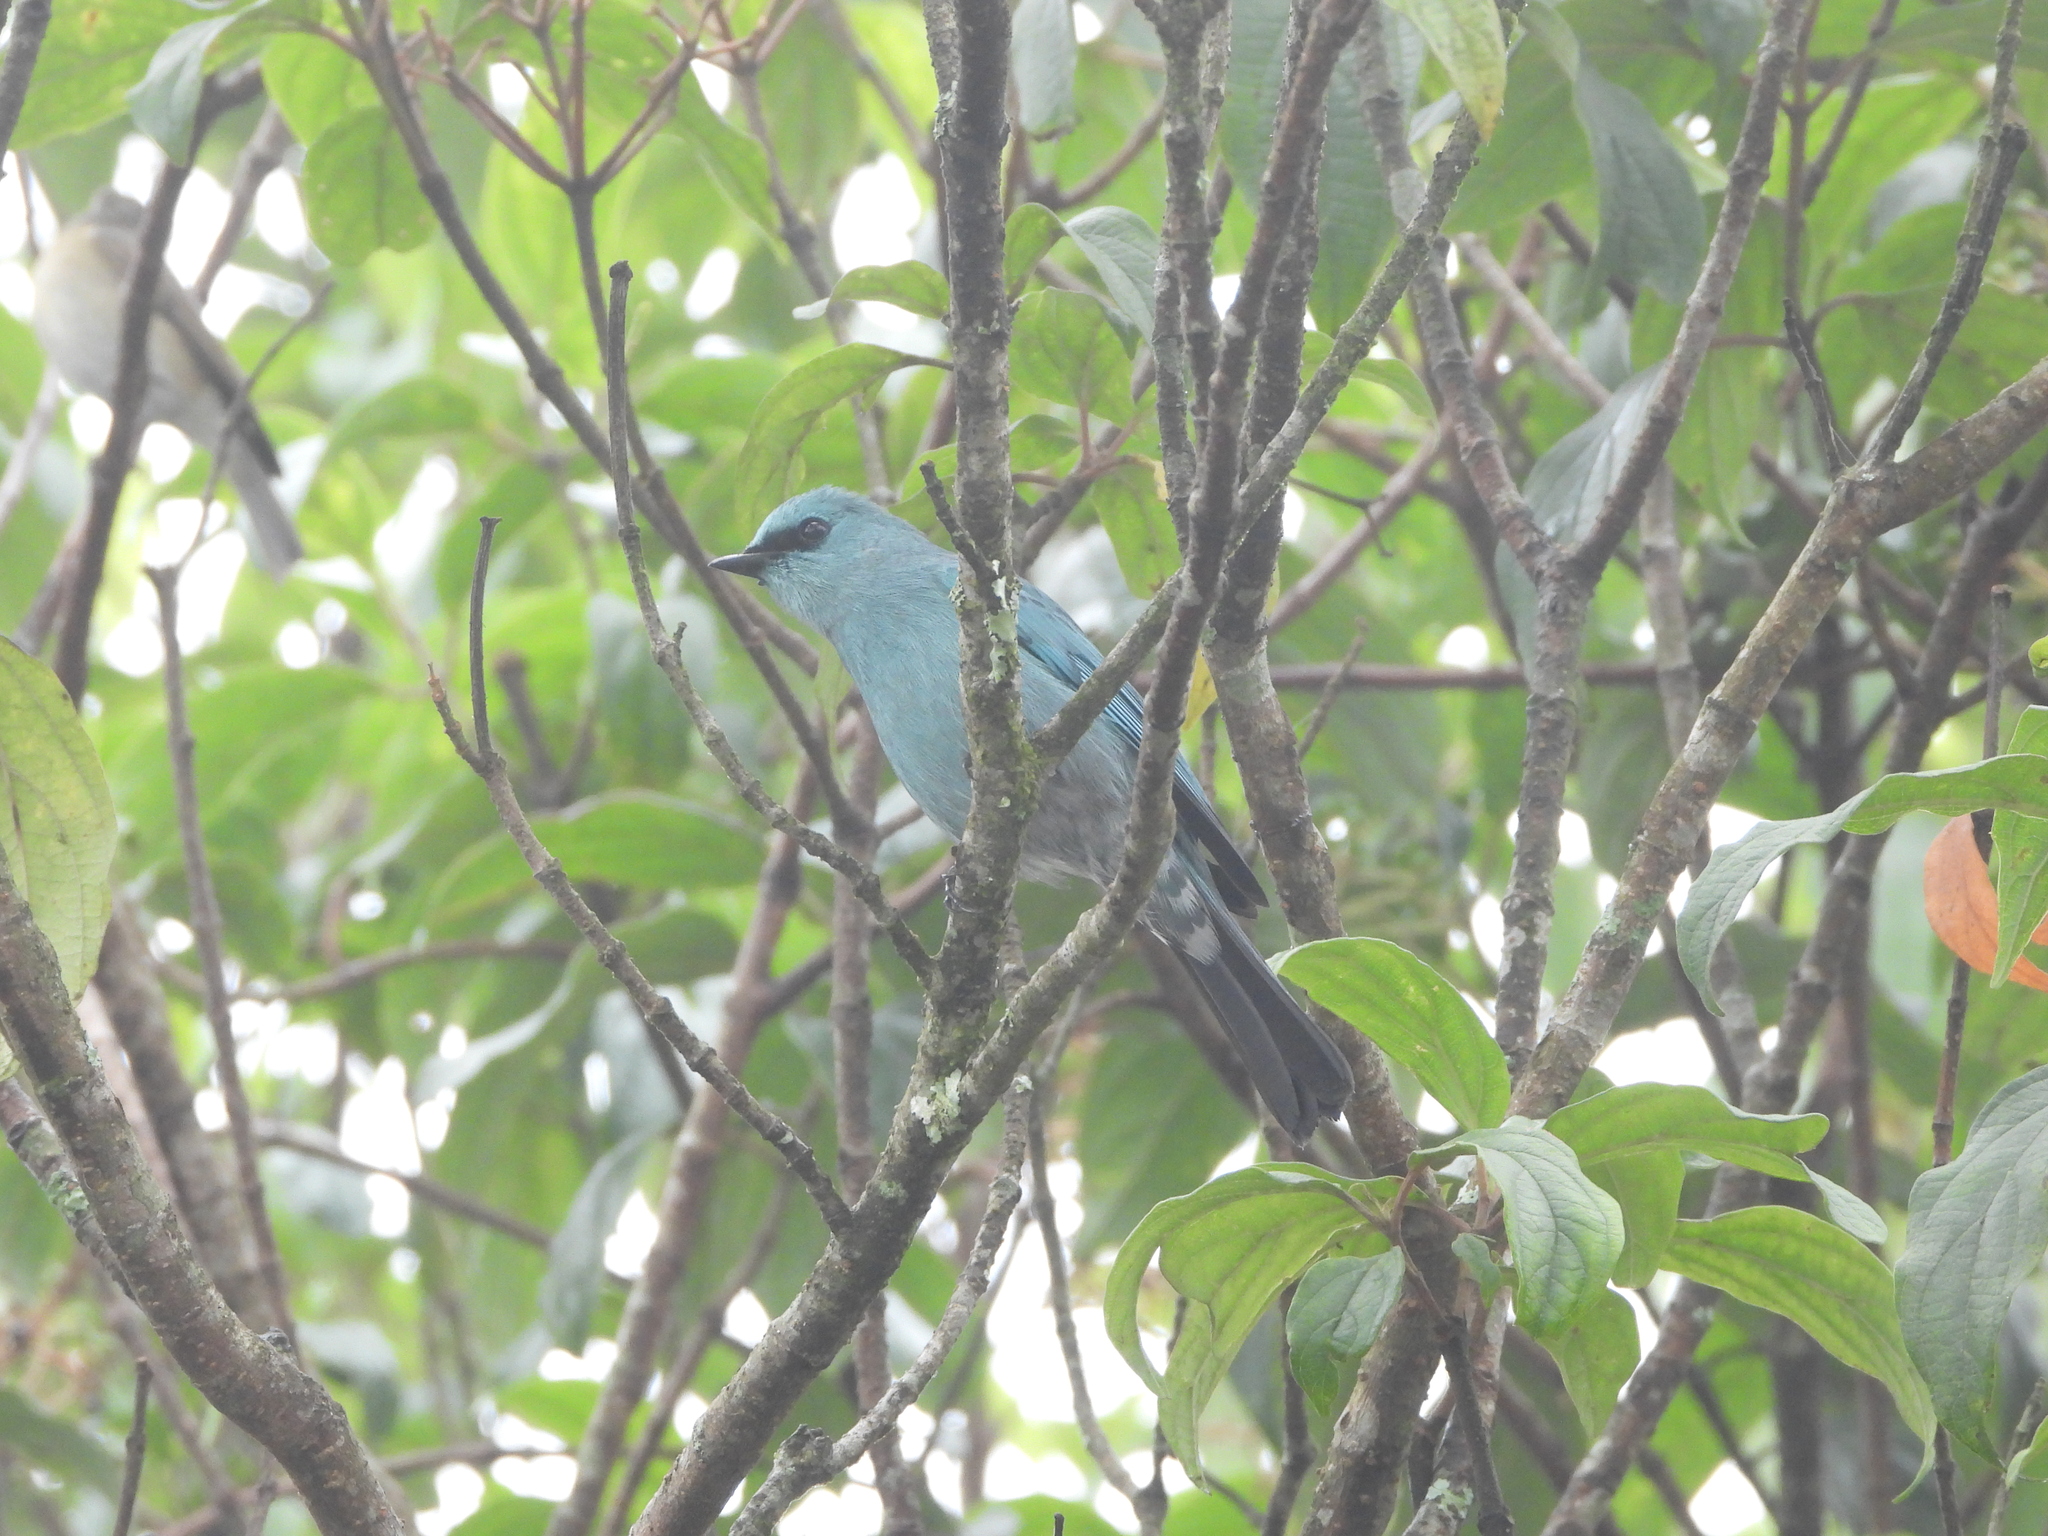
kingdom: Animalia
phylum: Chordata
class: Aves
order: Passeriformes
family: Muscicapidae
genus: Eumyias
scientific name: Eumyias thalassinus
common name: Verditer flycatcher
